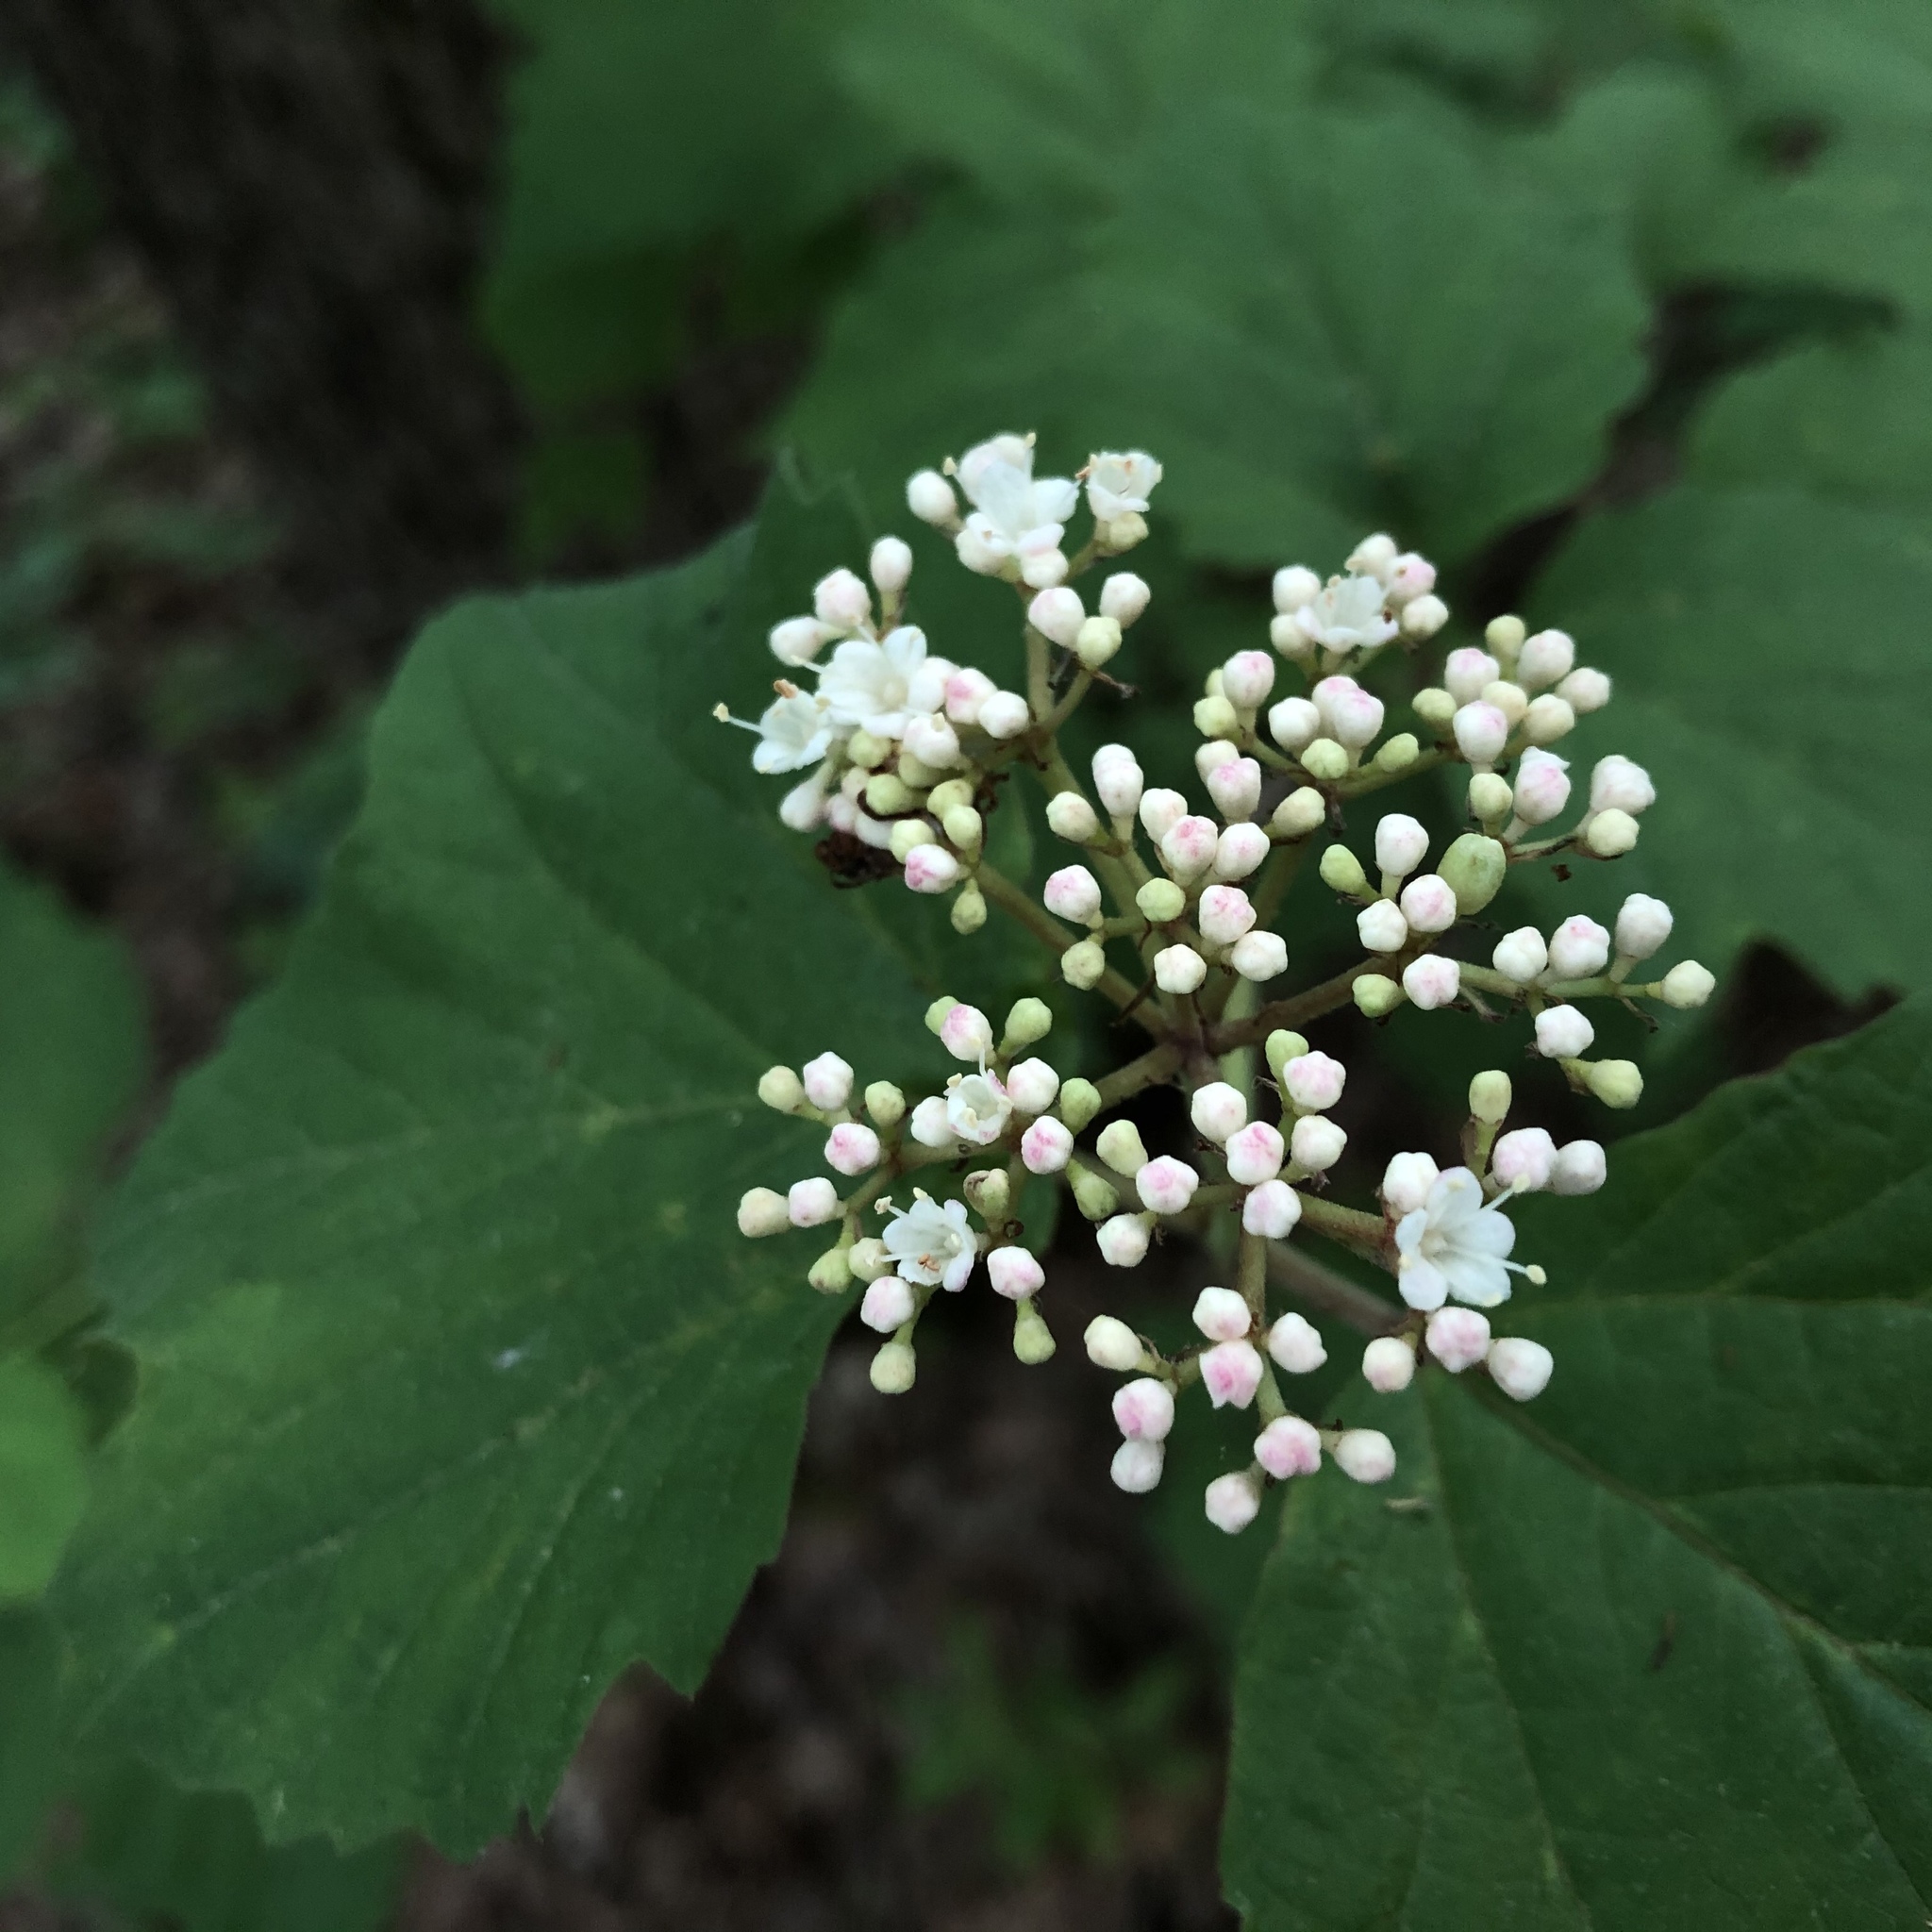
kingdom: Plantae
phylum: Tracheophyta
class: Magnoliopsida
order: Dipsacales
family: Viburnaceae
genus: Viburnum
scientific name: Viburnum acerifolium
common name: Dockmackie
